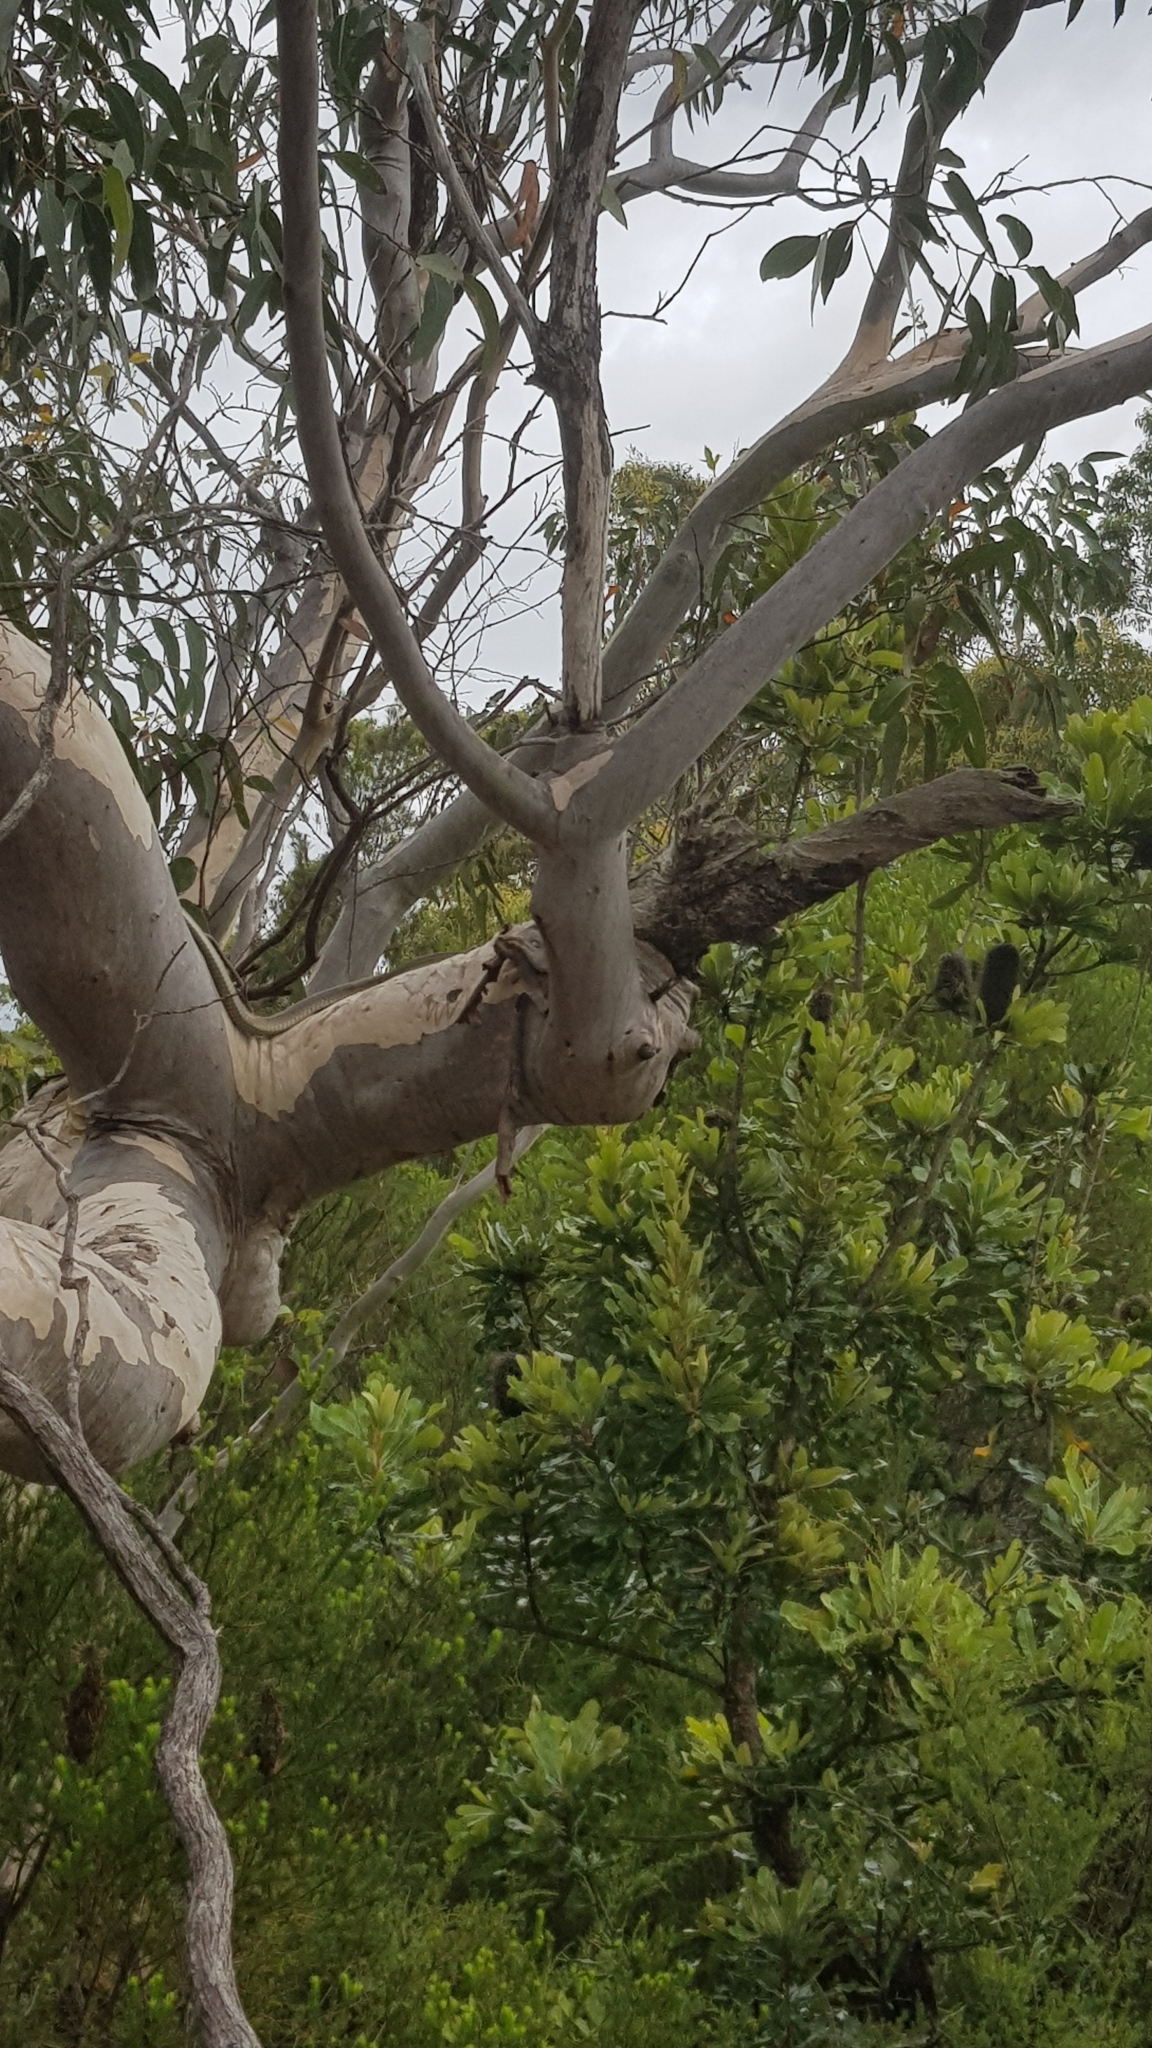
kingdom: Animalia
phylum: Chordata
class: Squamata
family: Colubridae
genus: Dendrelaphis
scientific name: Dendrelaphis punctulatus
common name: Common tree snake
